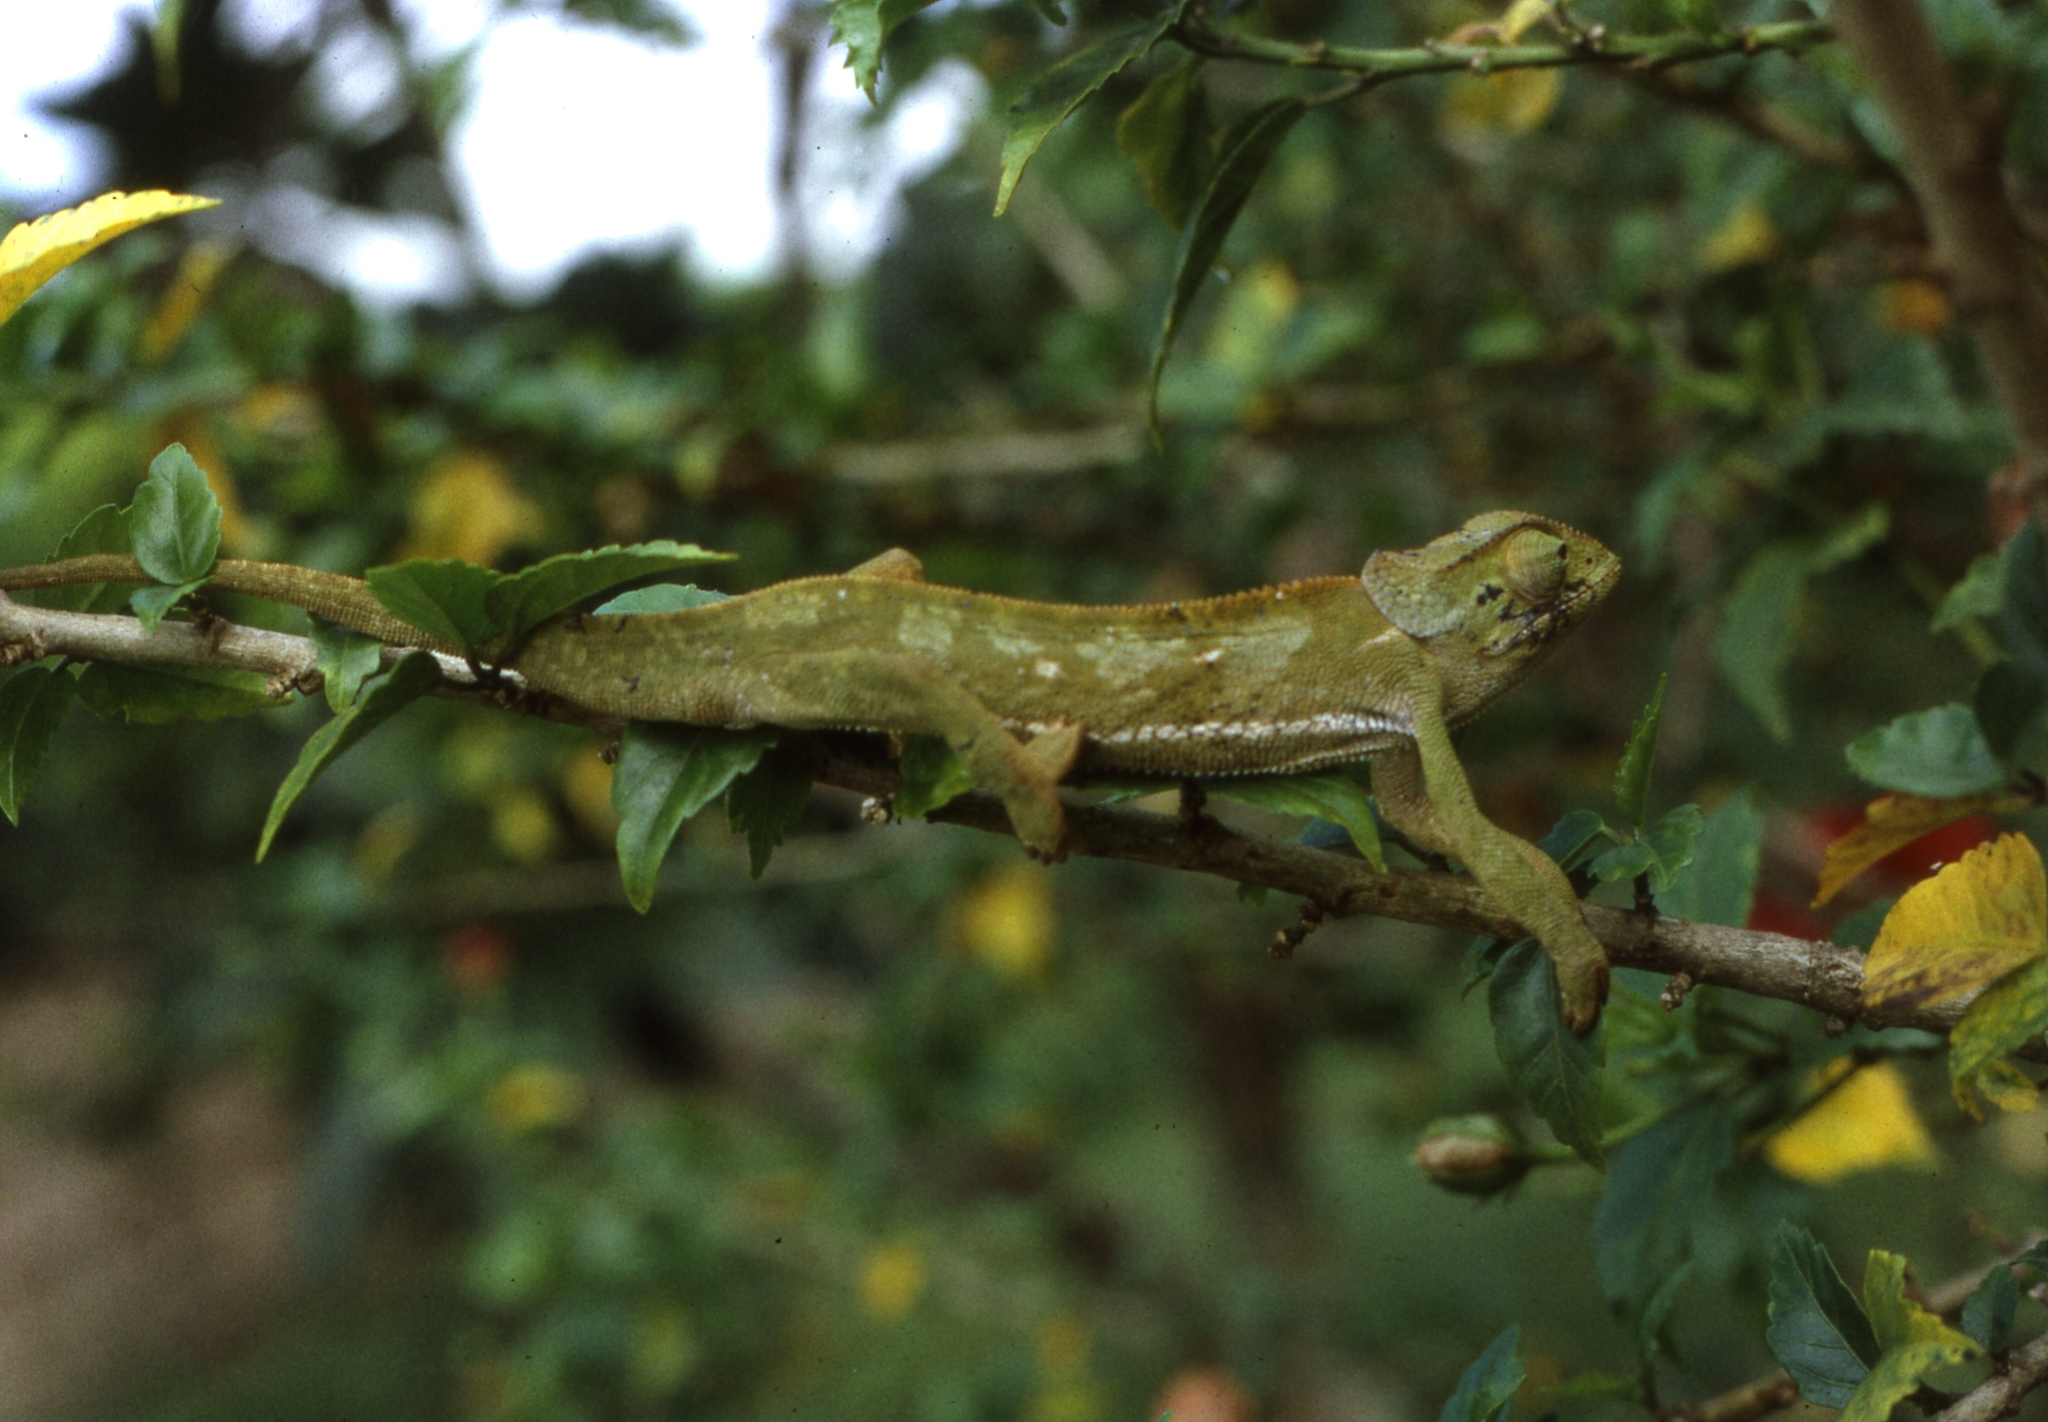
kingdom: Animalia
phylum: Chordata
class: Squamata
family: Chamaeleonidae
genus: Chamaeleo
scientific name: Chamaeleo dilepis
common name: Flapneck chameleon
